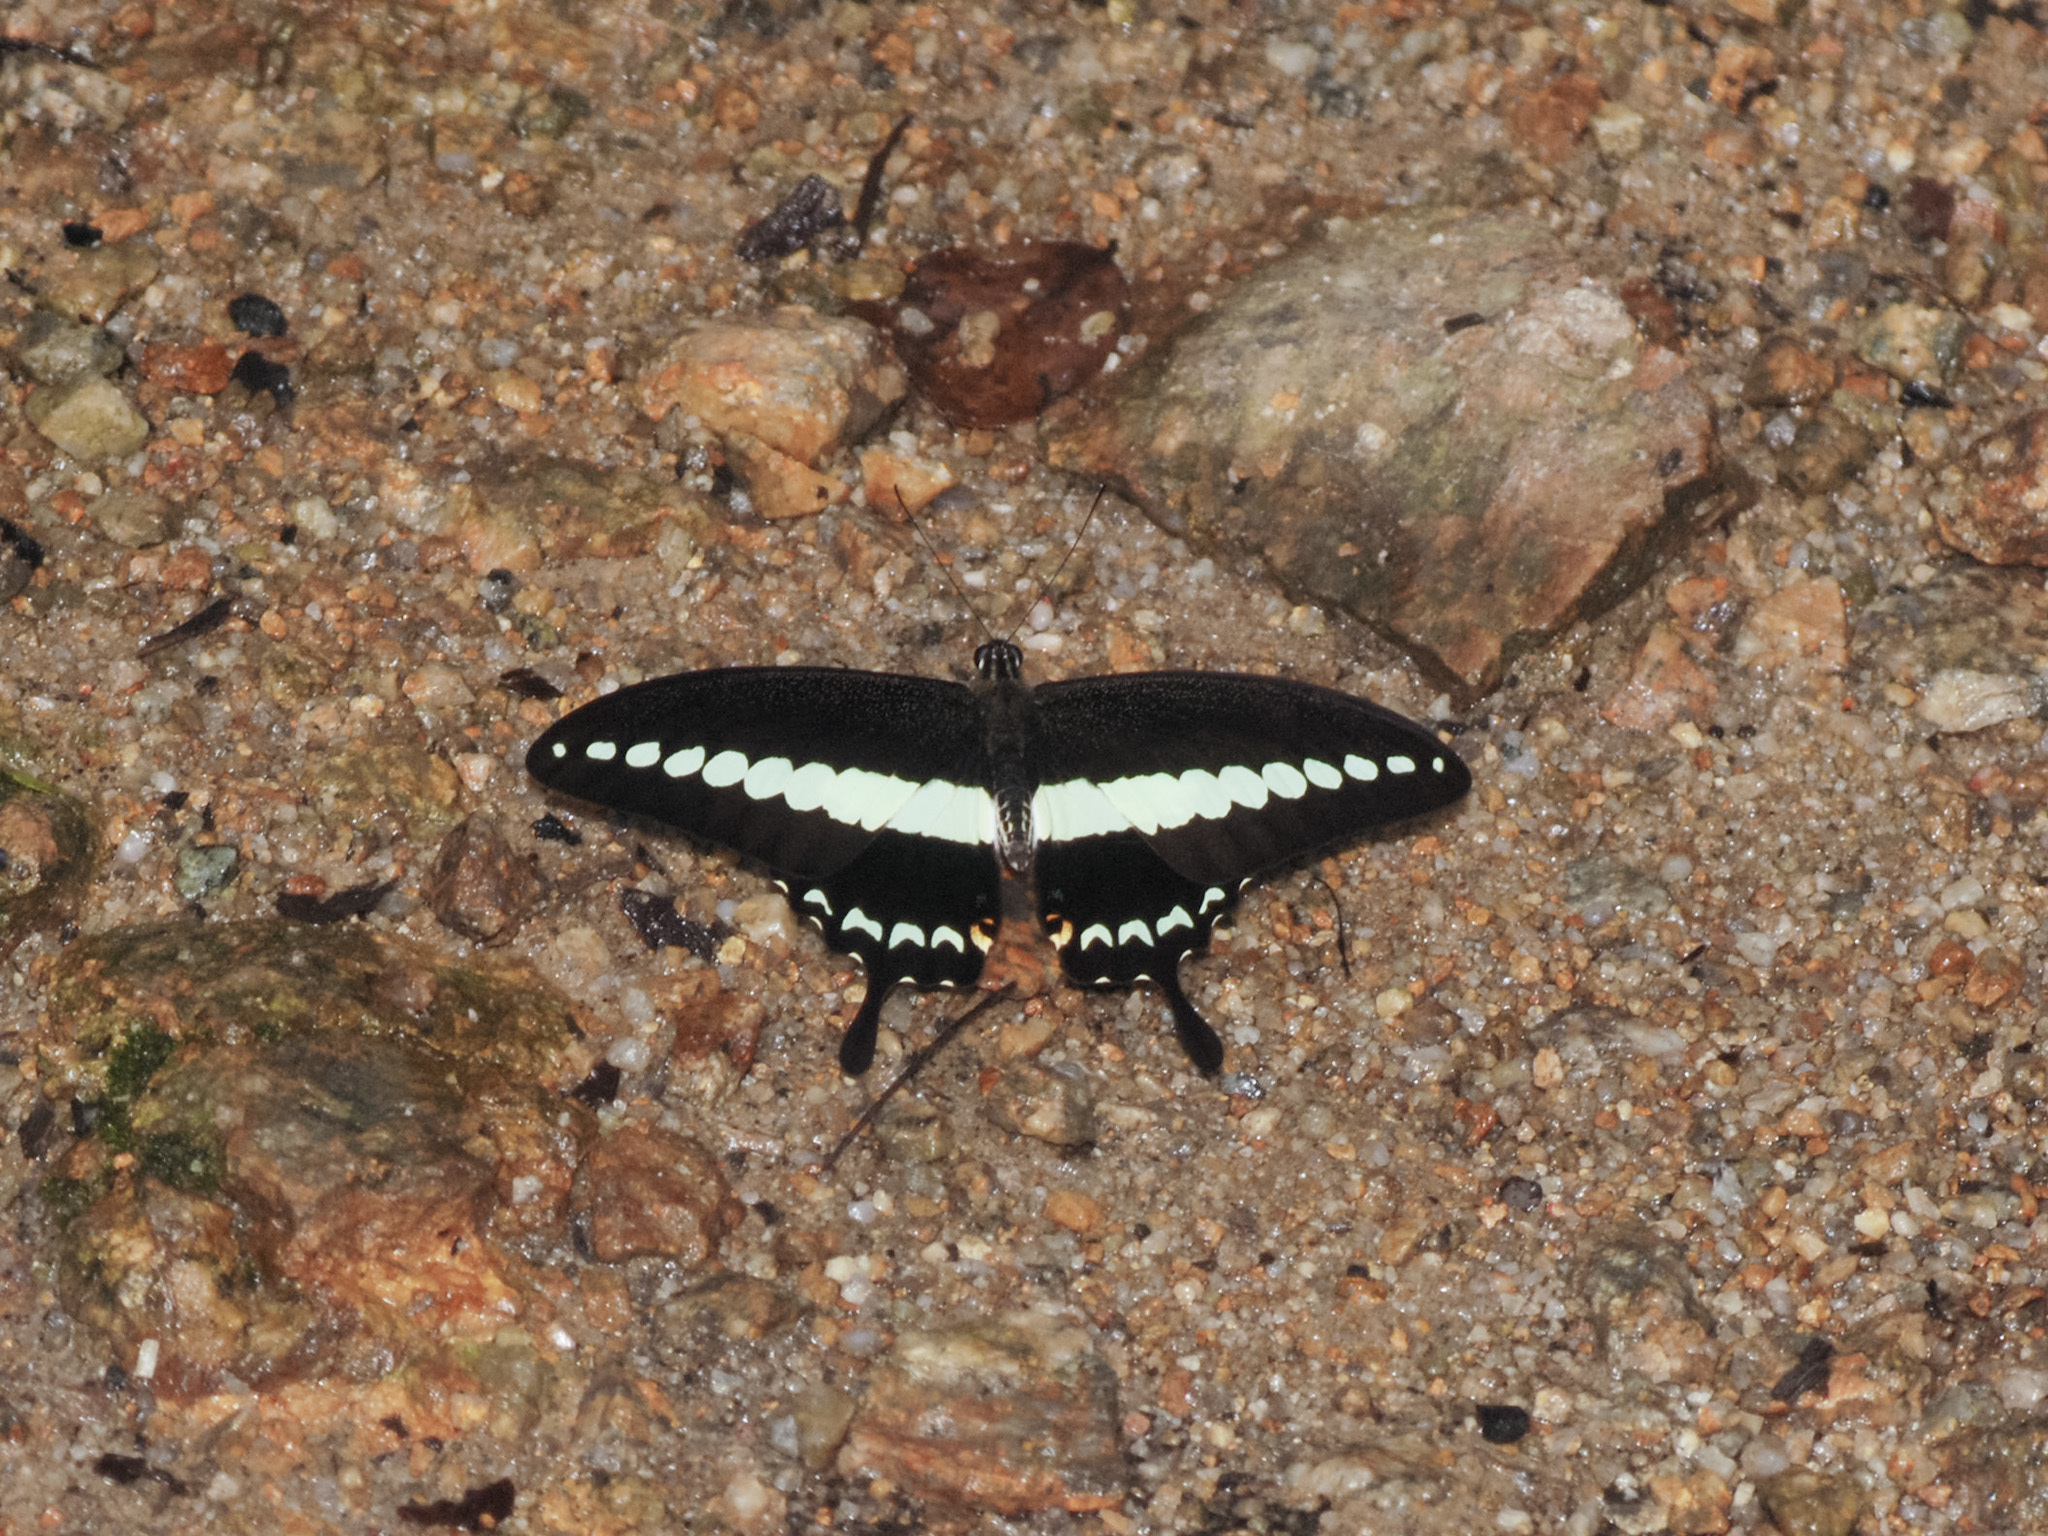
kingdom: Animalia
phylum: Arthropoda
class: Insecta
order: Lepidoptera
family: Papilionidae
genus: Papilio
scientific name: Papilio demolion
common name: Banded swallowtail
